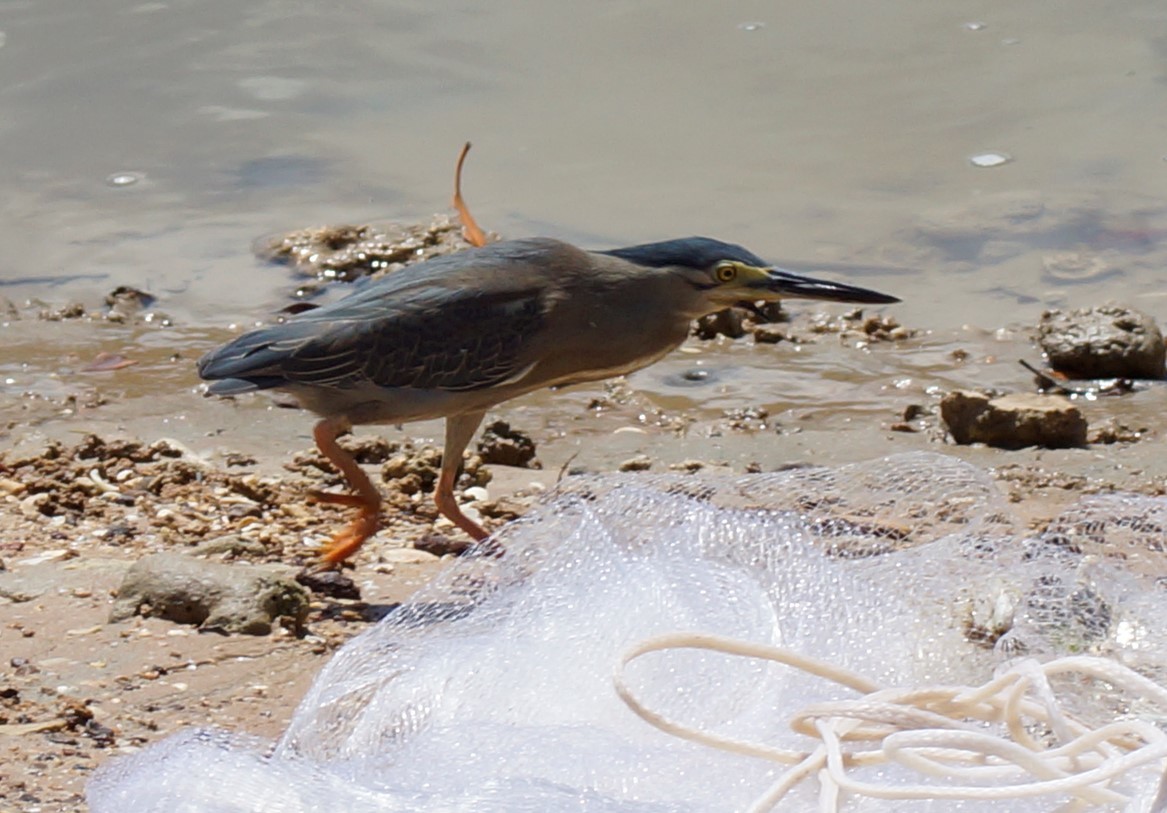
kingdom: Animalia
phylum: Chordata
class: Aves
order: Pelecaniformes
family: Ardeidae
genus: Butorides
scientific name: Butorides striata
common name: Striated heron
